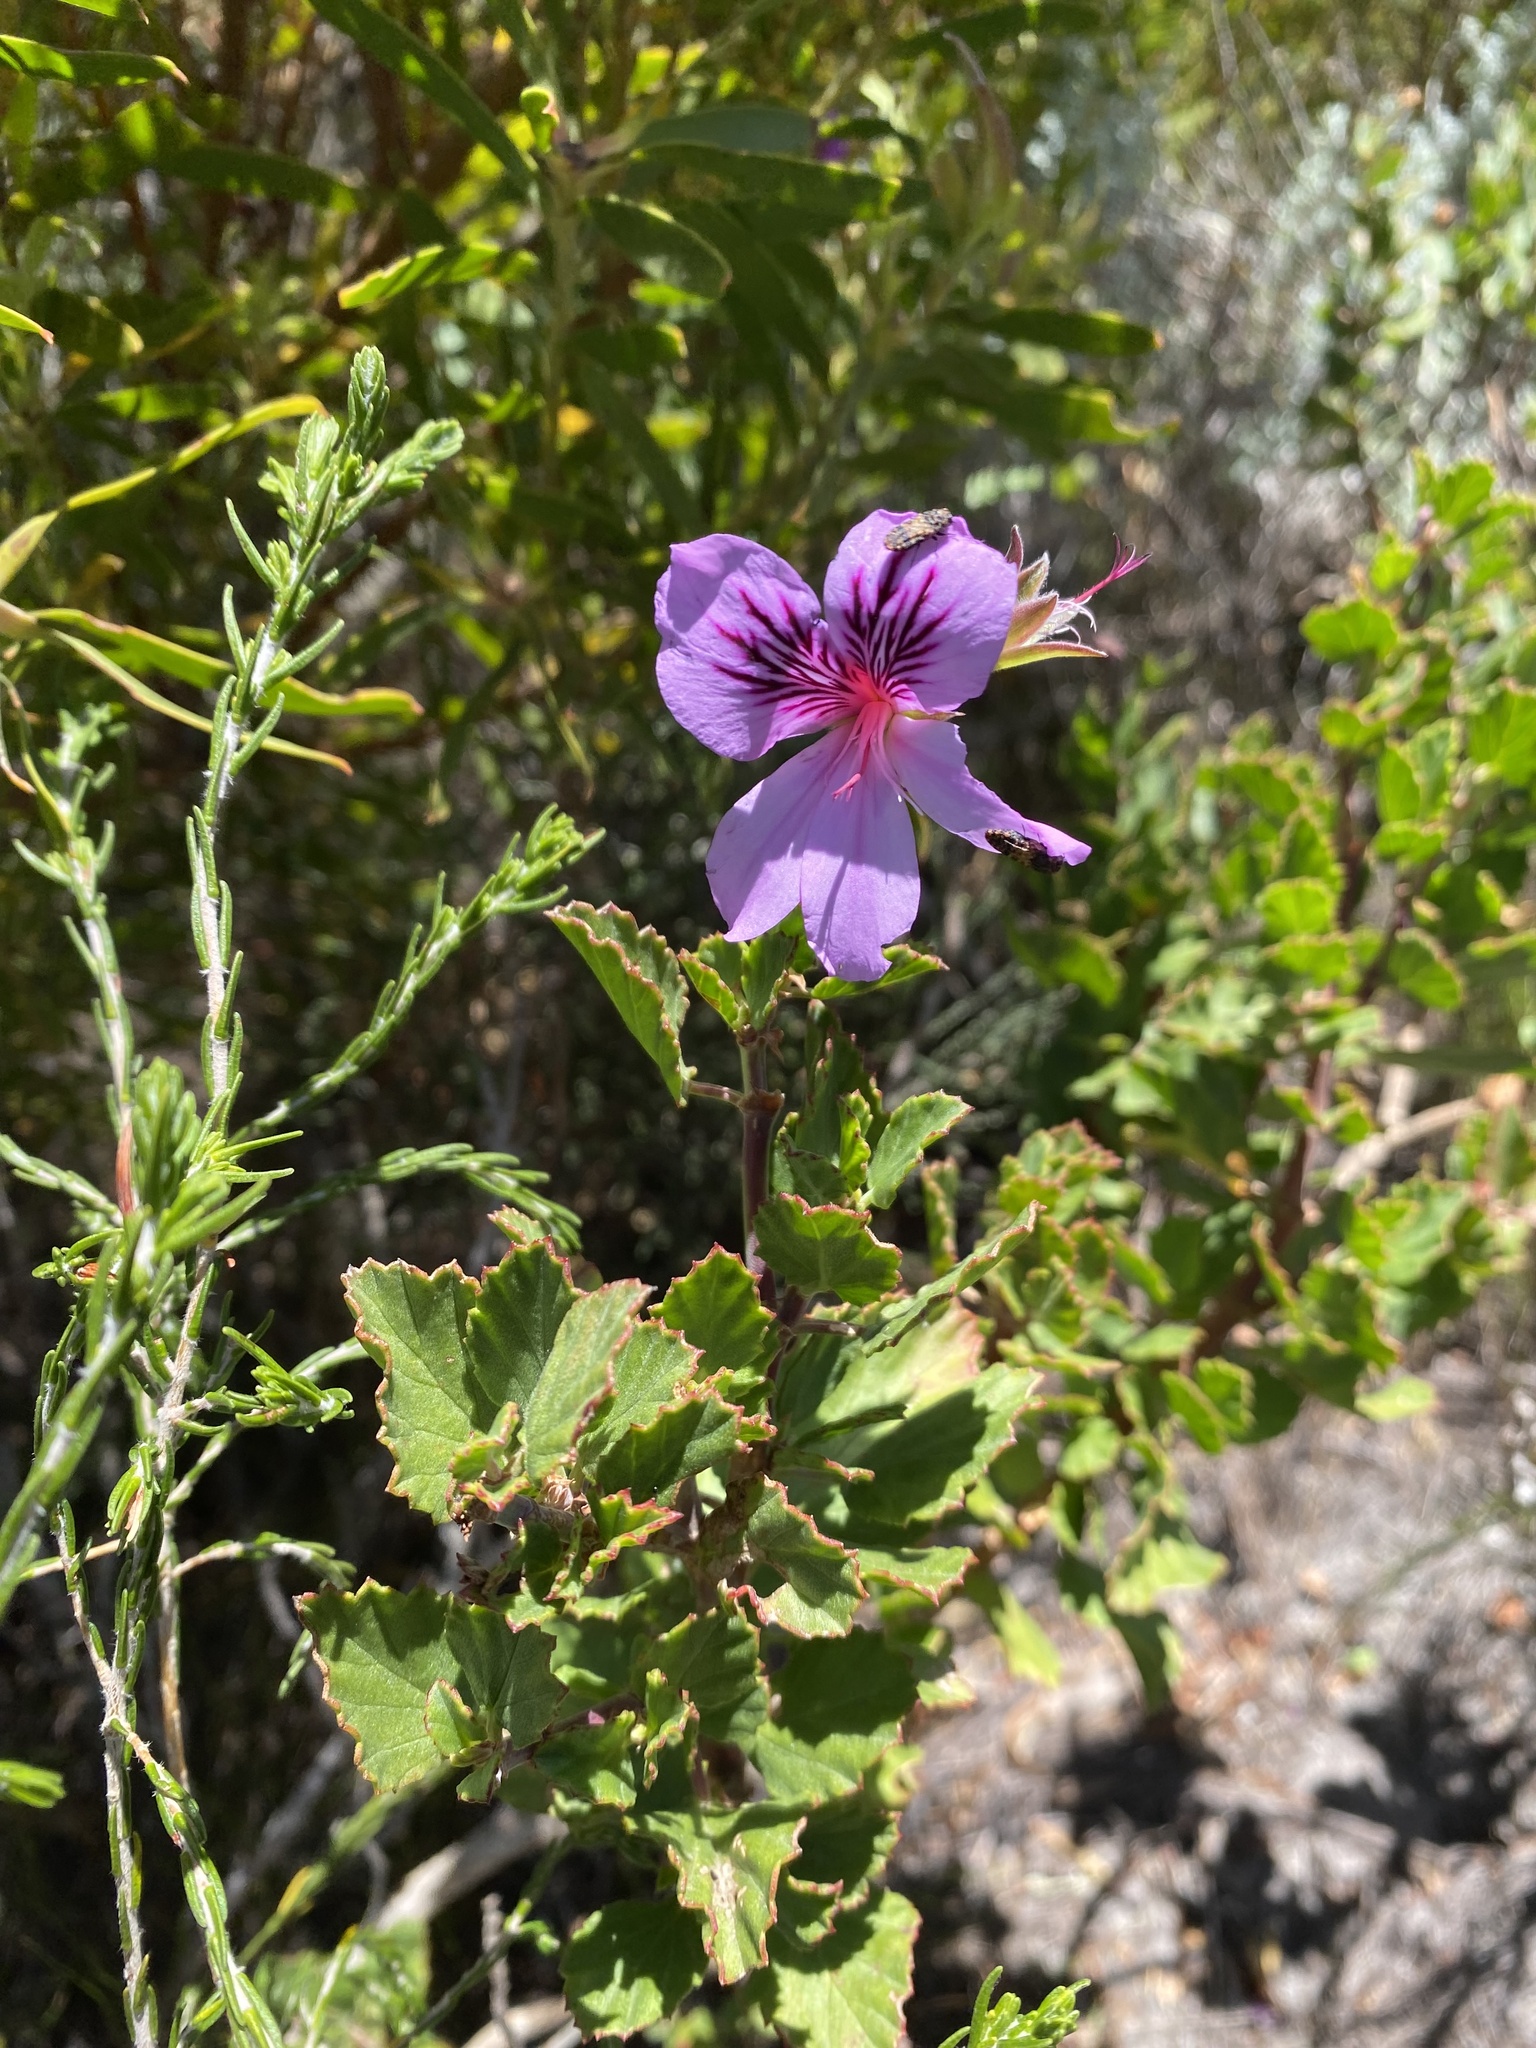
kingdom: Plantae
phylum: Tracheophyta
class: Magnoliopsida
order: Geraniales
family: Geraniaceae
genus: Pelargonium
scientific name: Pelargonium betulinum
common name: Birch-leaf pelargonium
